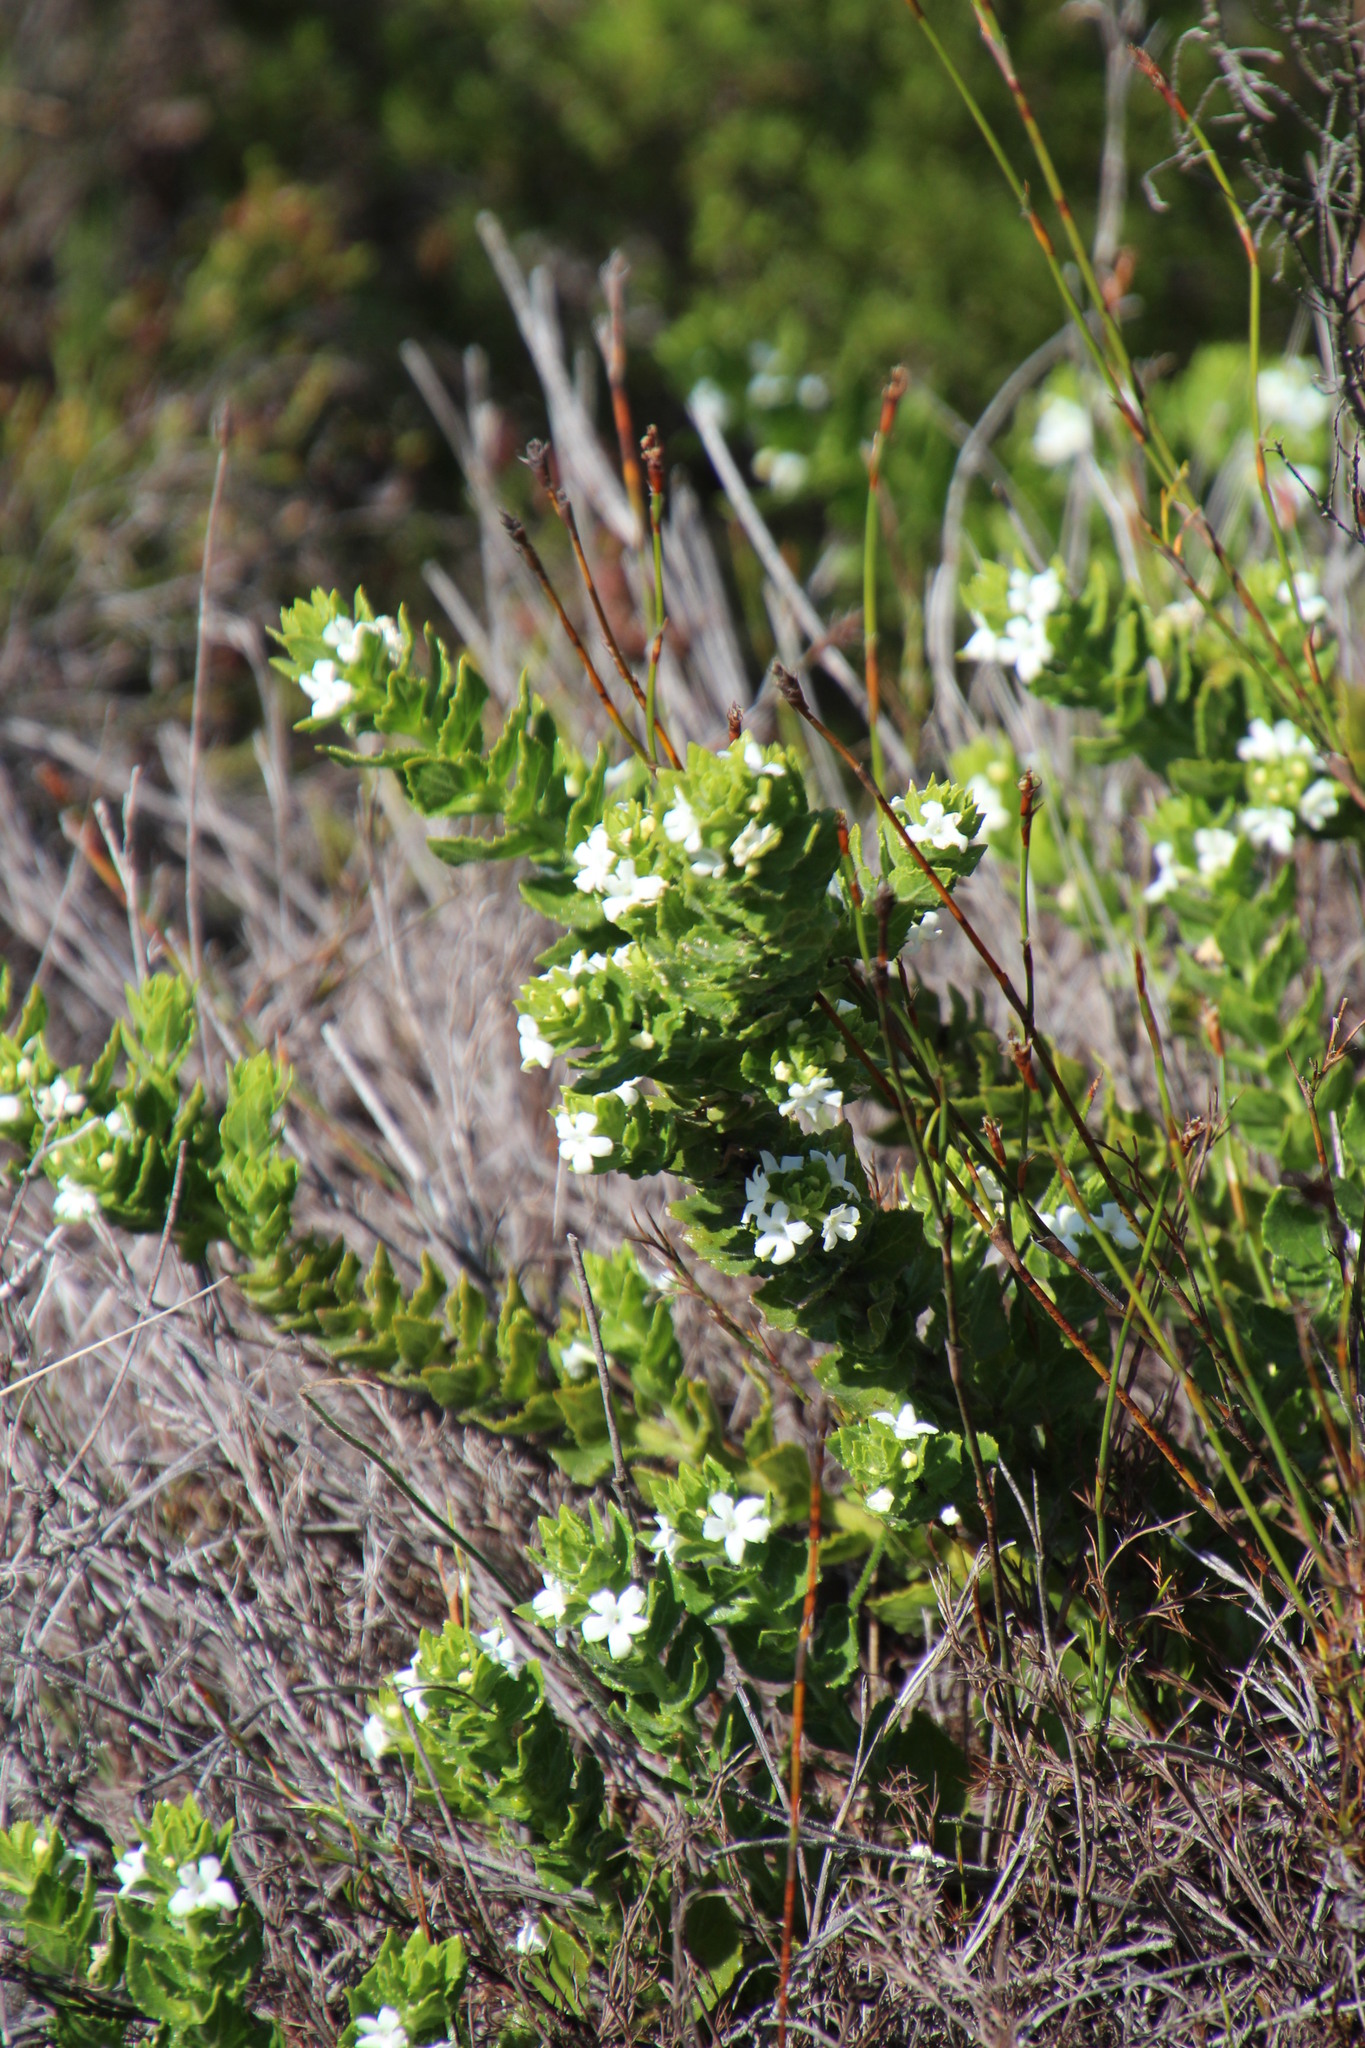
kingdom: Plantae
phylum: Tracheophyta
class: Magnoliopsida
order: Lamiales
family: Scrophulariaceae
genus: Oftia
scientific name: Oftia africana
